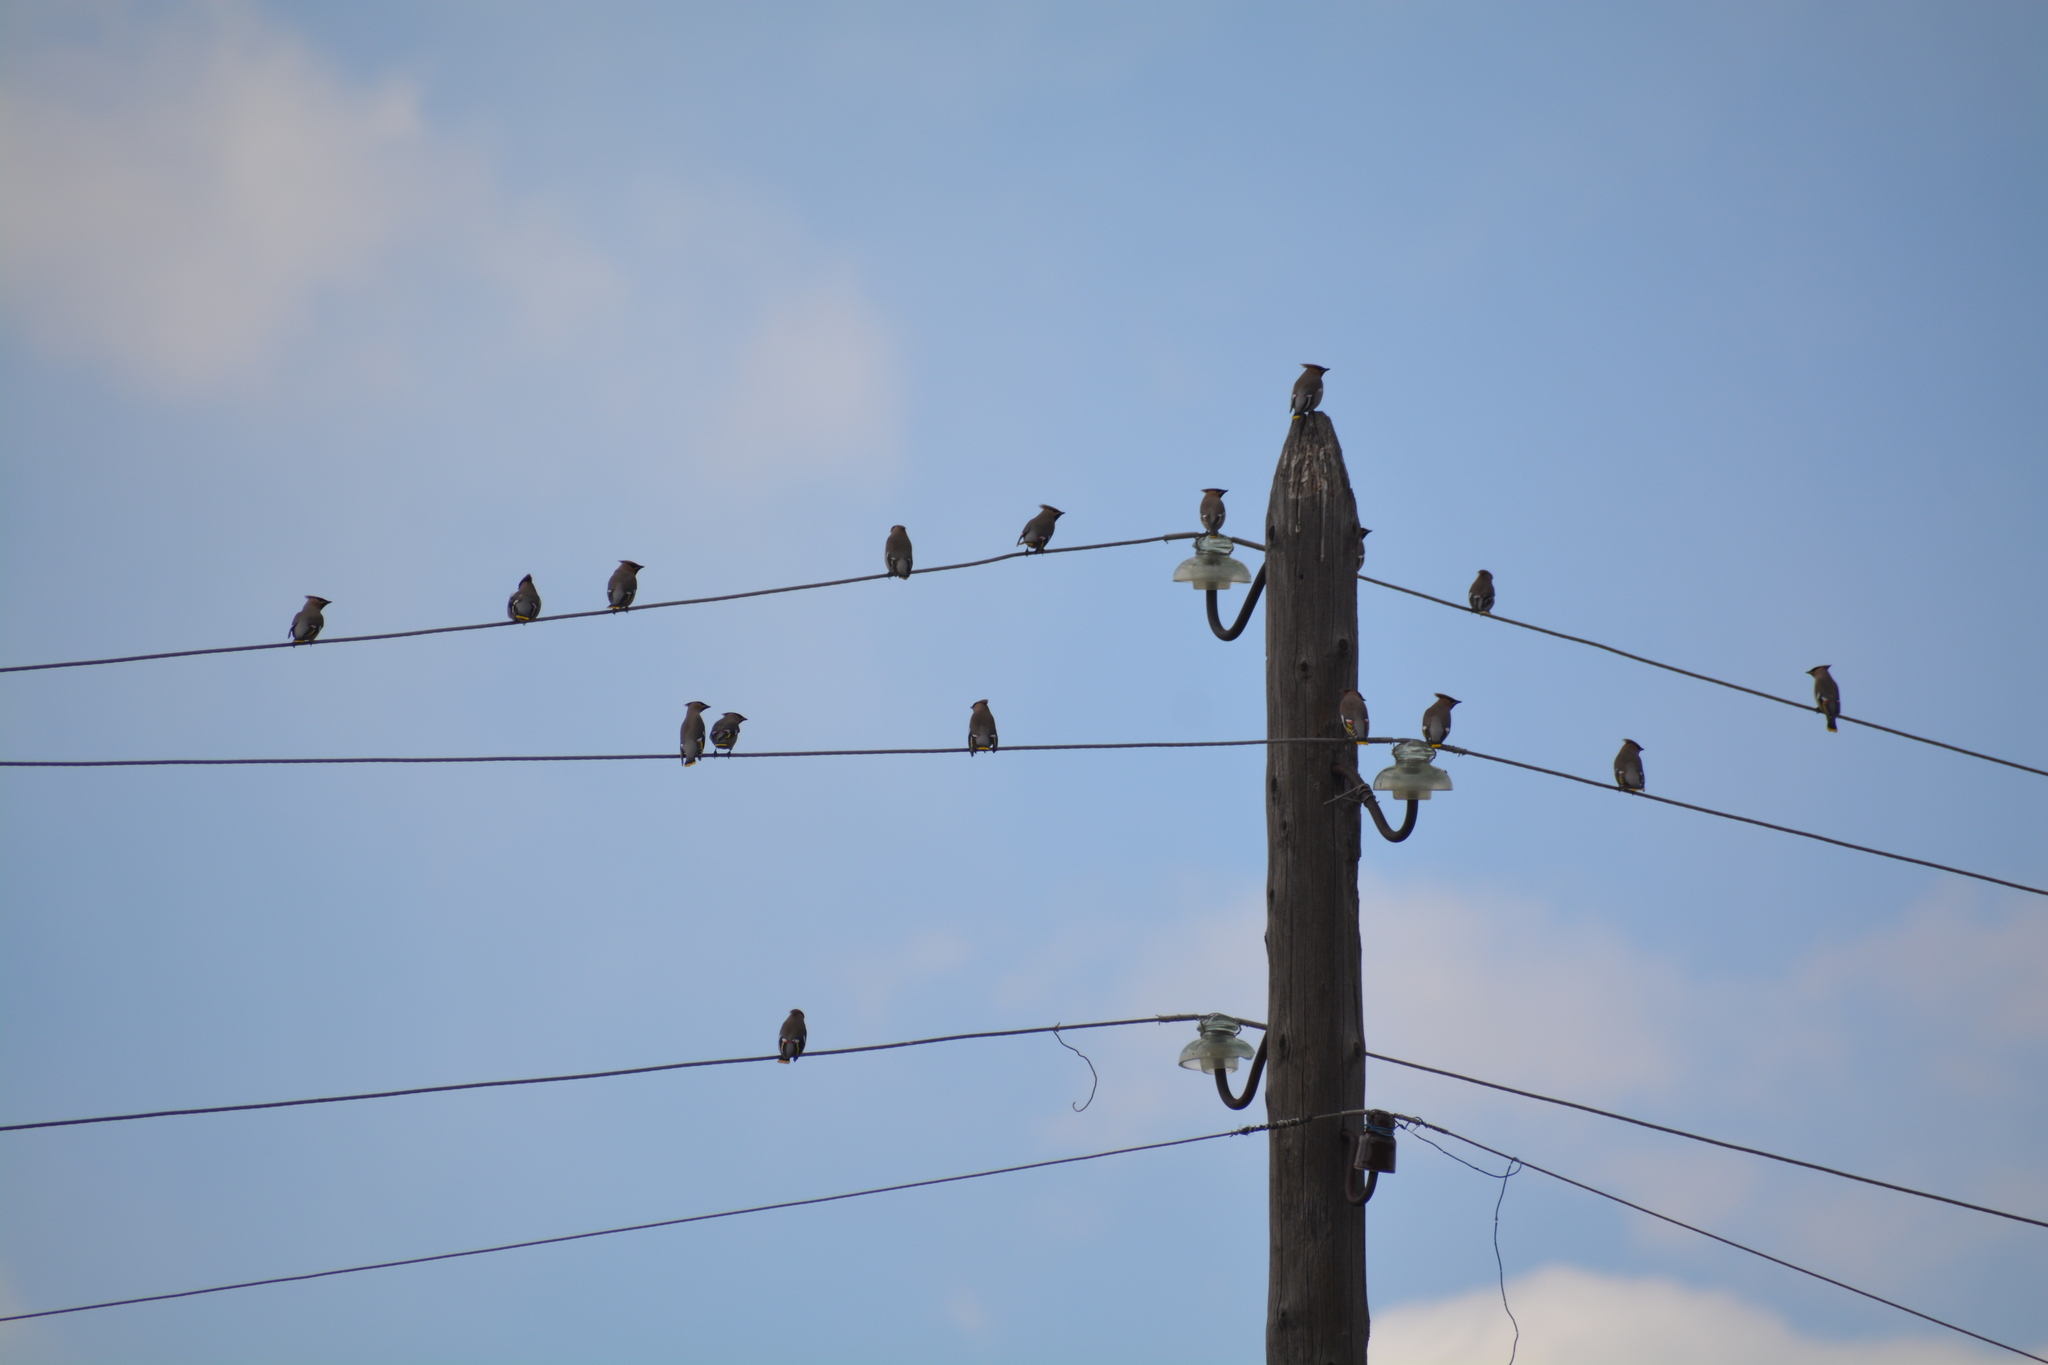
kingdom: Animalia
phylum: Chordata
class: Aves
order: Passeriformes
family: Bombycillidae
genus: Bombycilla
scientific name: Bombycilla garrulus
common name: Bohemian waxwing
